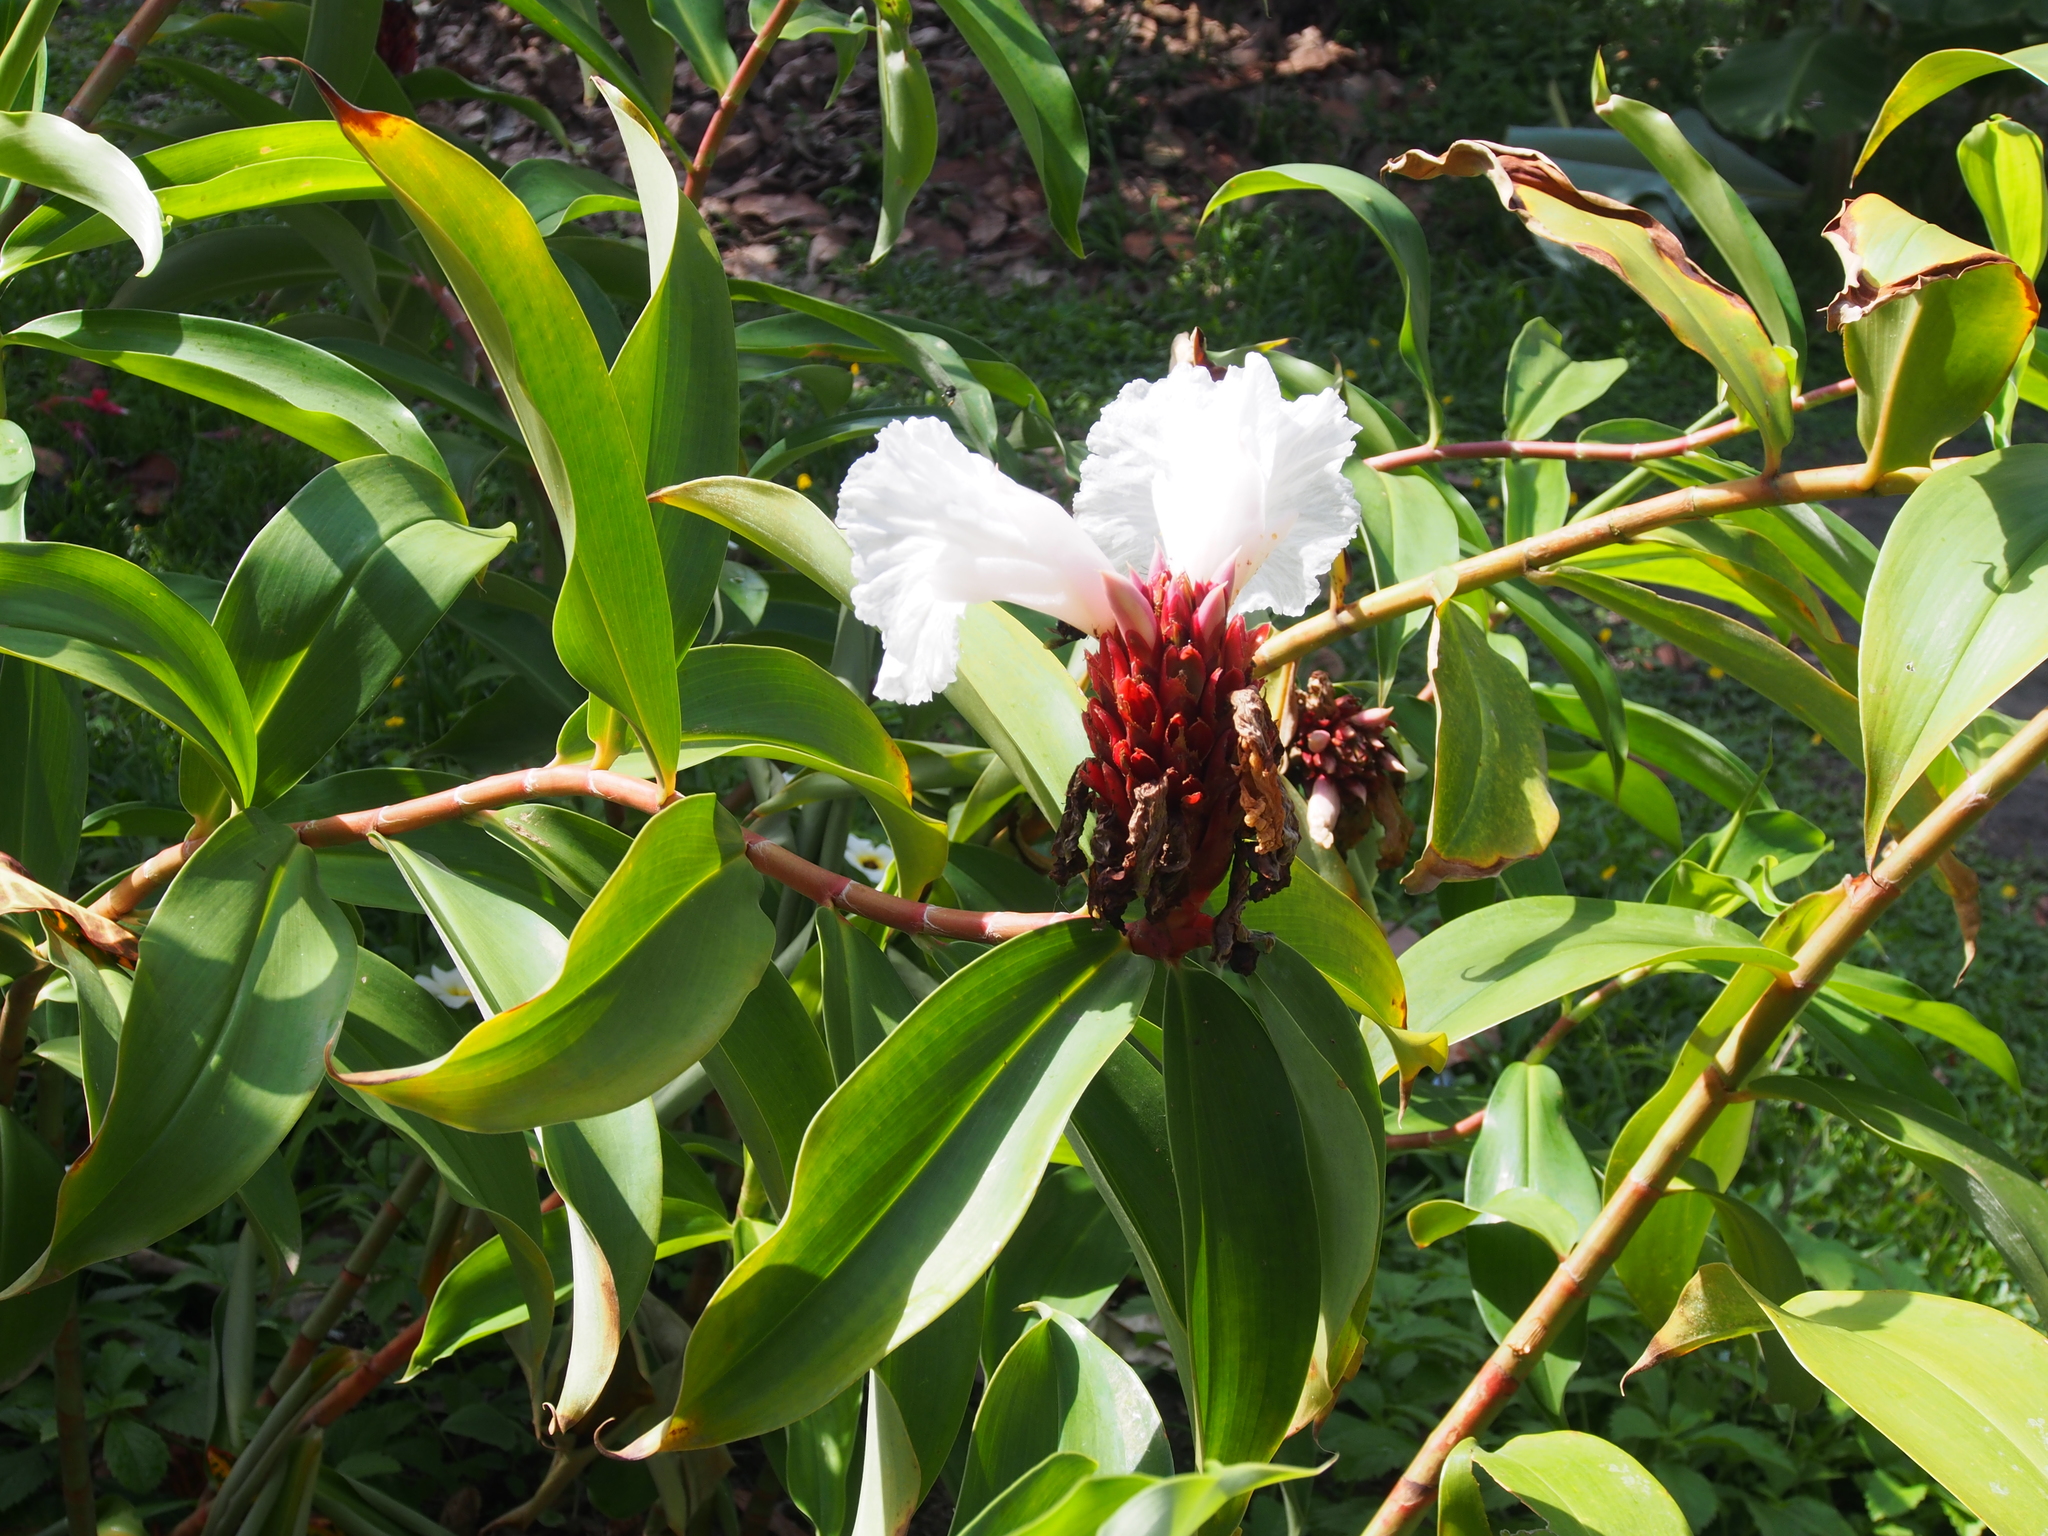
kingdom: Plantae
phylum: Tracheophyta
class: Liliopsida
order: Zingiberales
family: Costaceae
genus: Hellenia
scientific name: Hellenia speciosa
